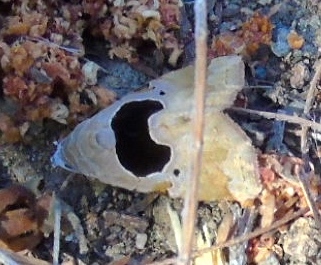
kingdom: Animalia
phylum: Arthropoda
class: Insecta
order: Lepidoptera
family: Noctuidae
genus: Tripudia
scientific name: Tripudia
